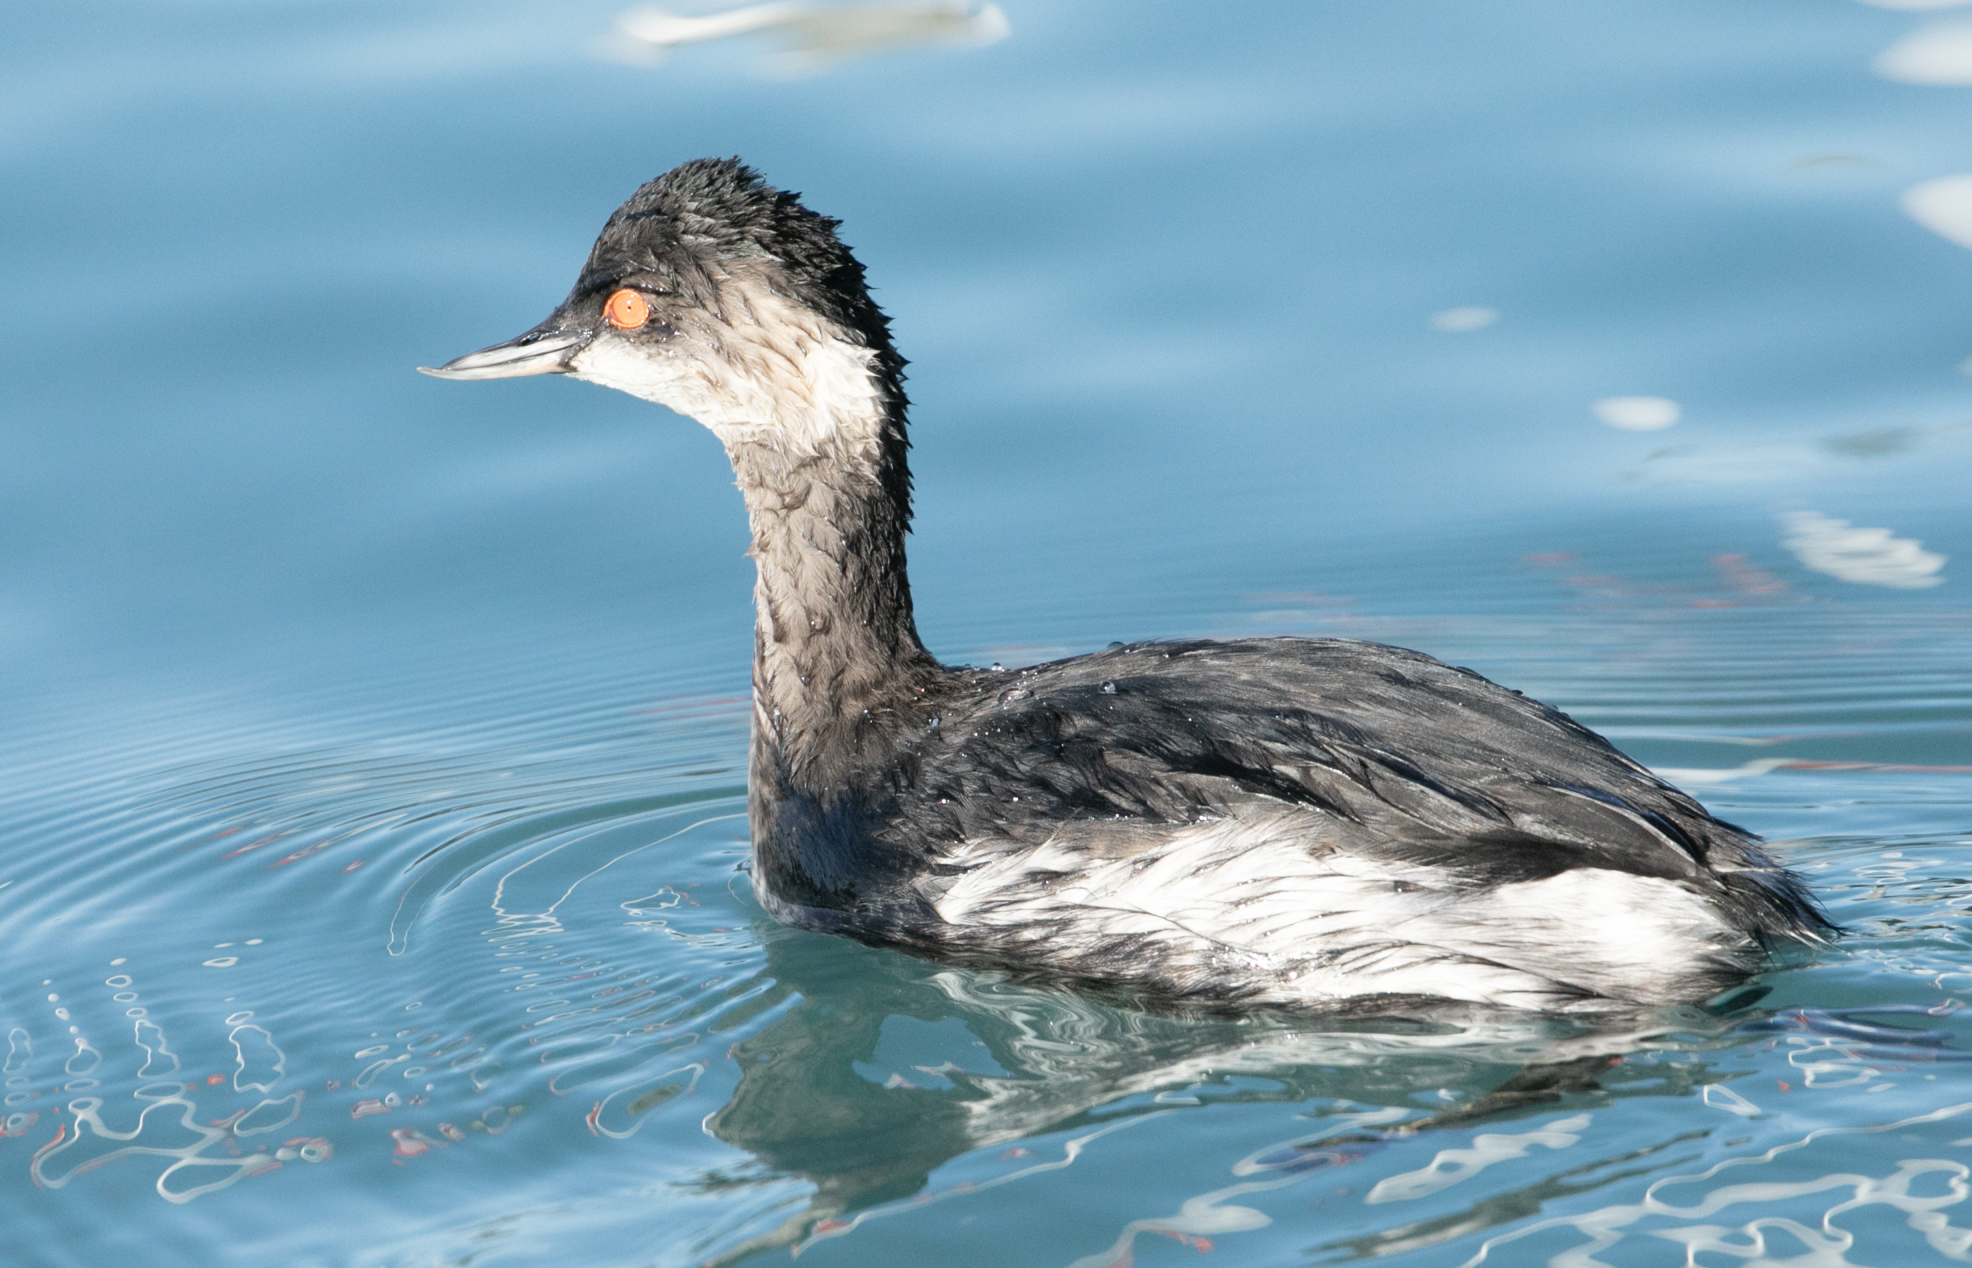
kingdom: Animalia
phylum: Chordata
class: Aves
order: Podicipediformes
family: Podicipedidae
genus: Podiceps
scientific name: Podiceps nigricollis
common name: Black-necked grebe
